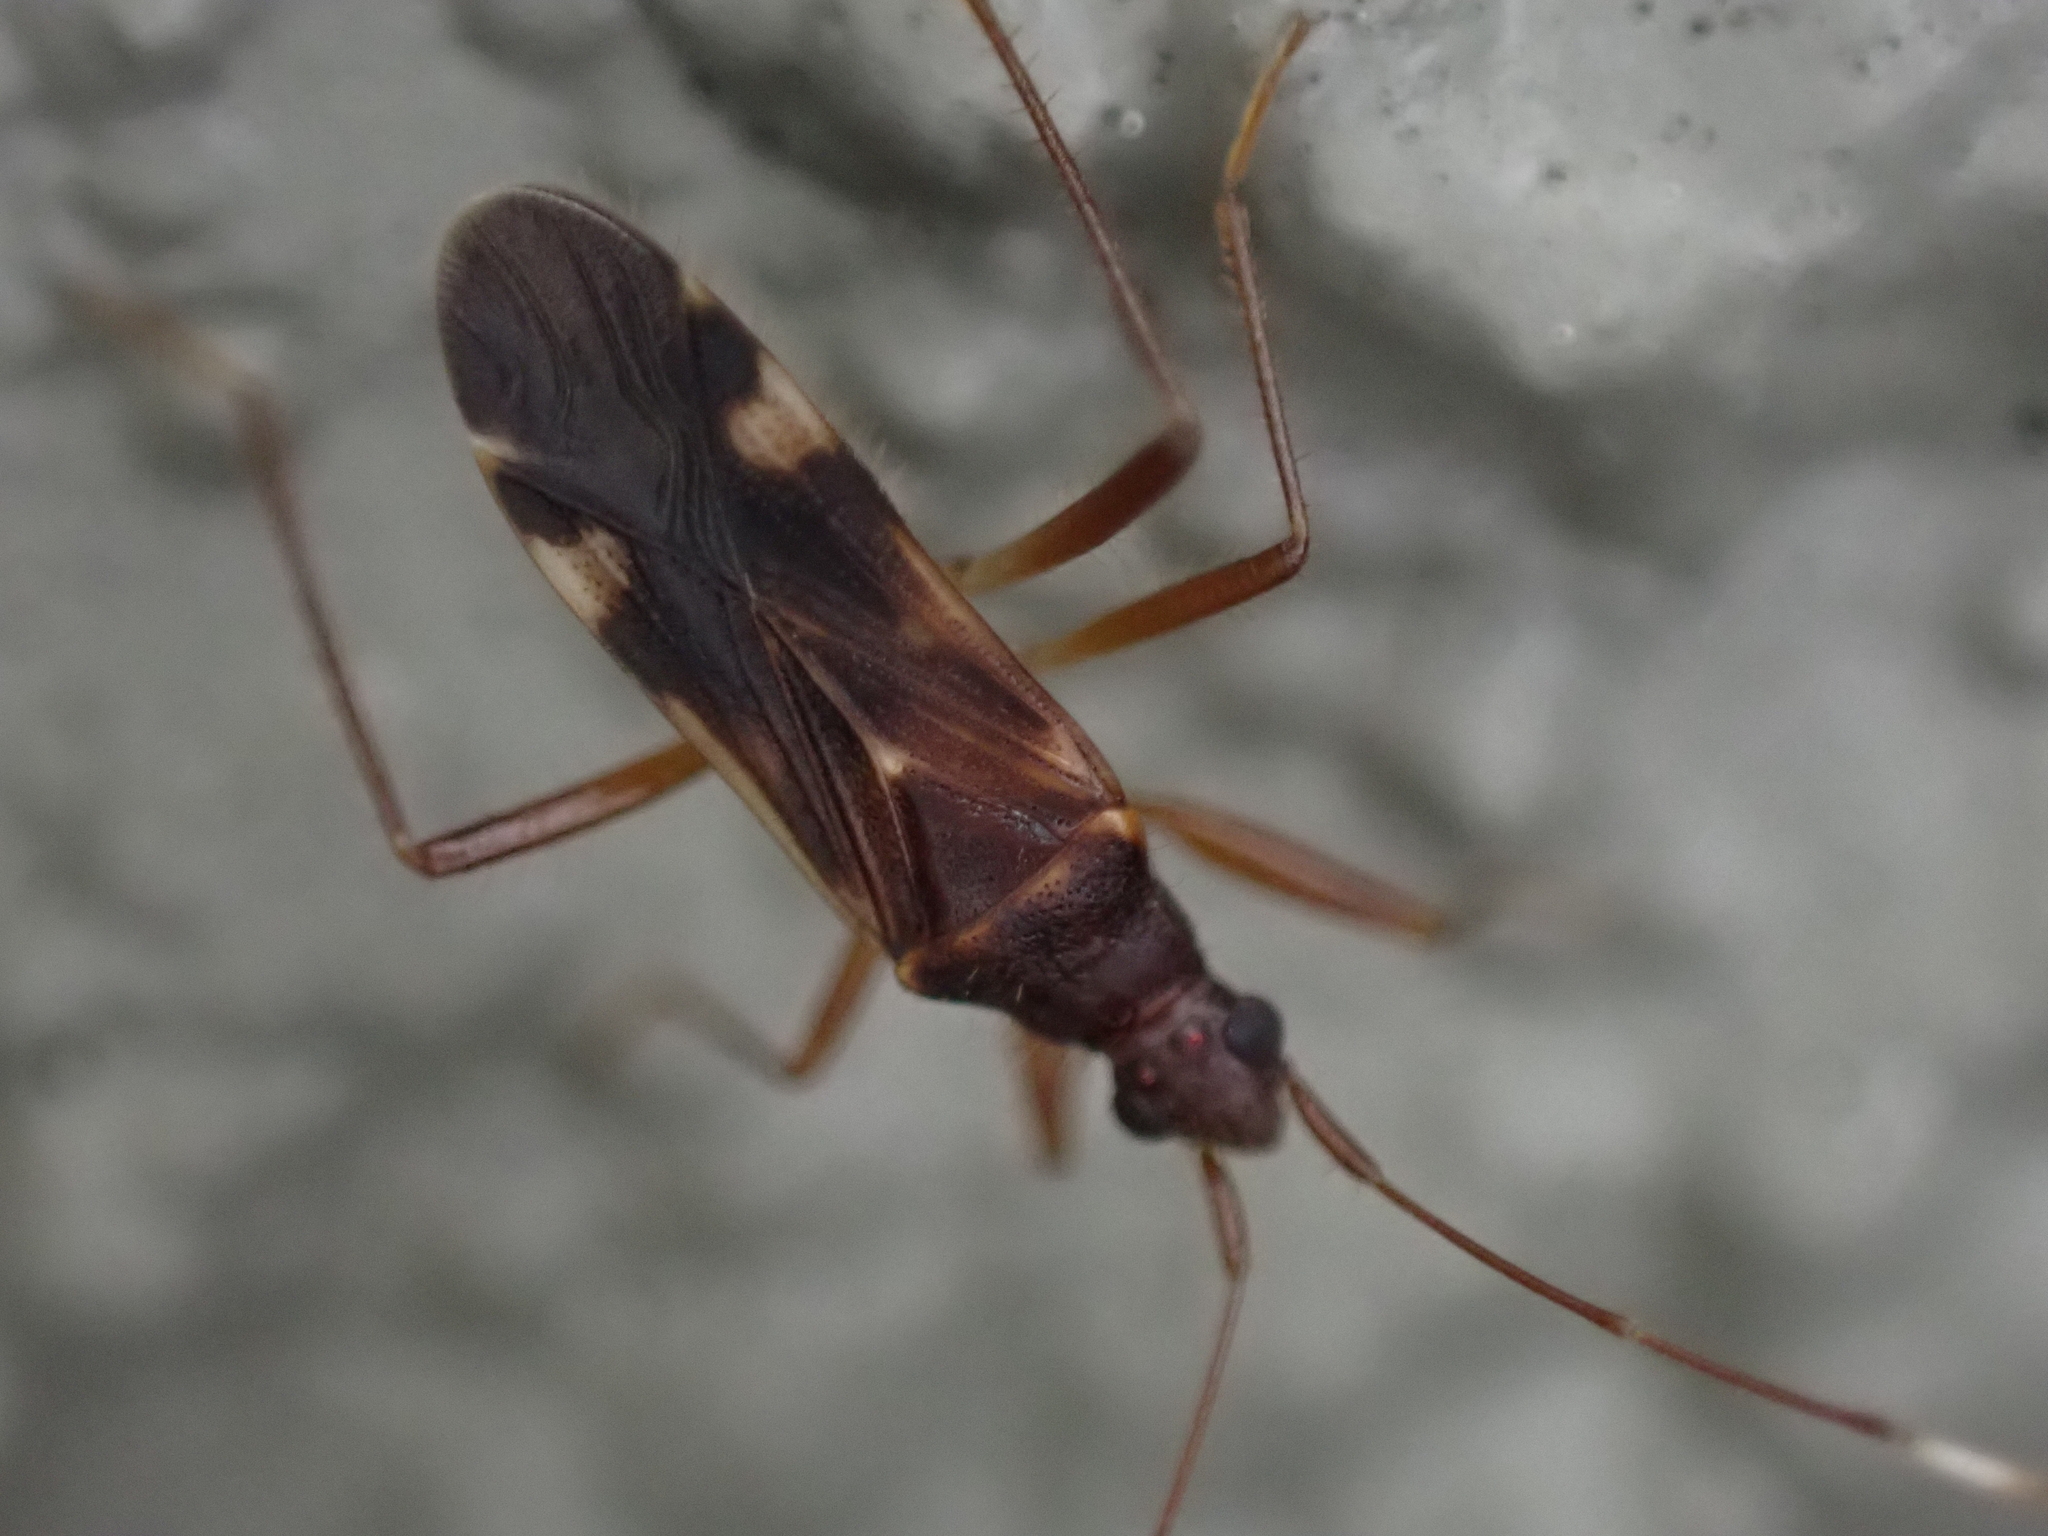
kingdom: Animalia
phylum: Arthropoda
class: Insecta
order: Hemiptera
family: Rhyparochromidae
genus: Ozophora
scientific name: Ozophora trinotata
